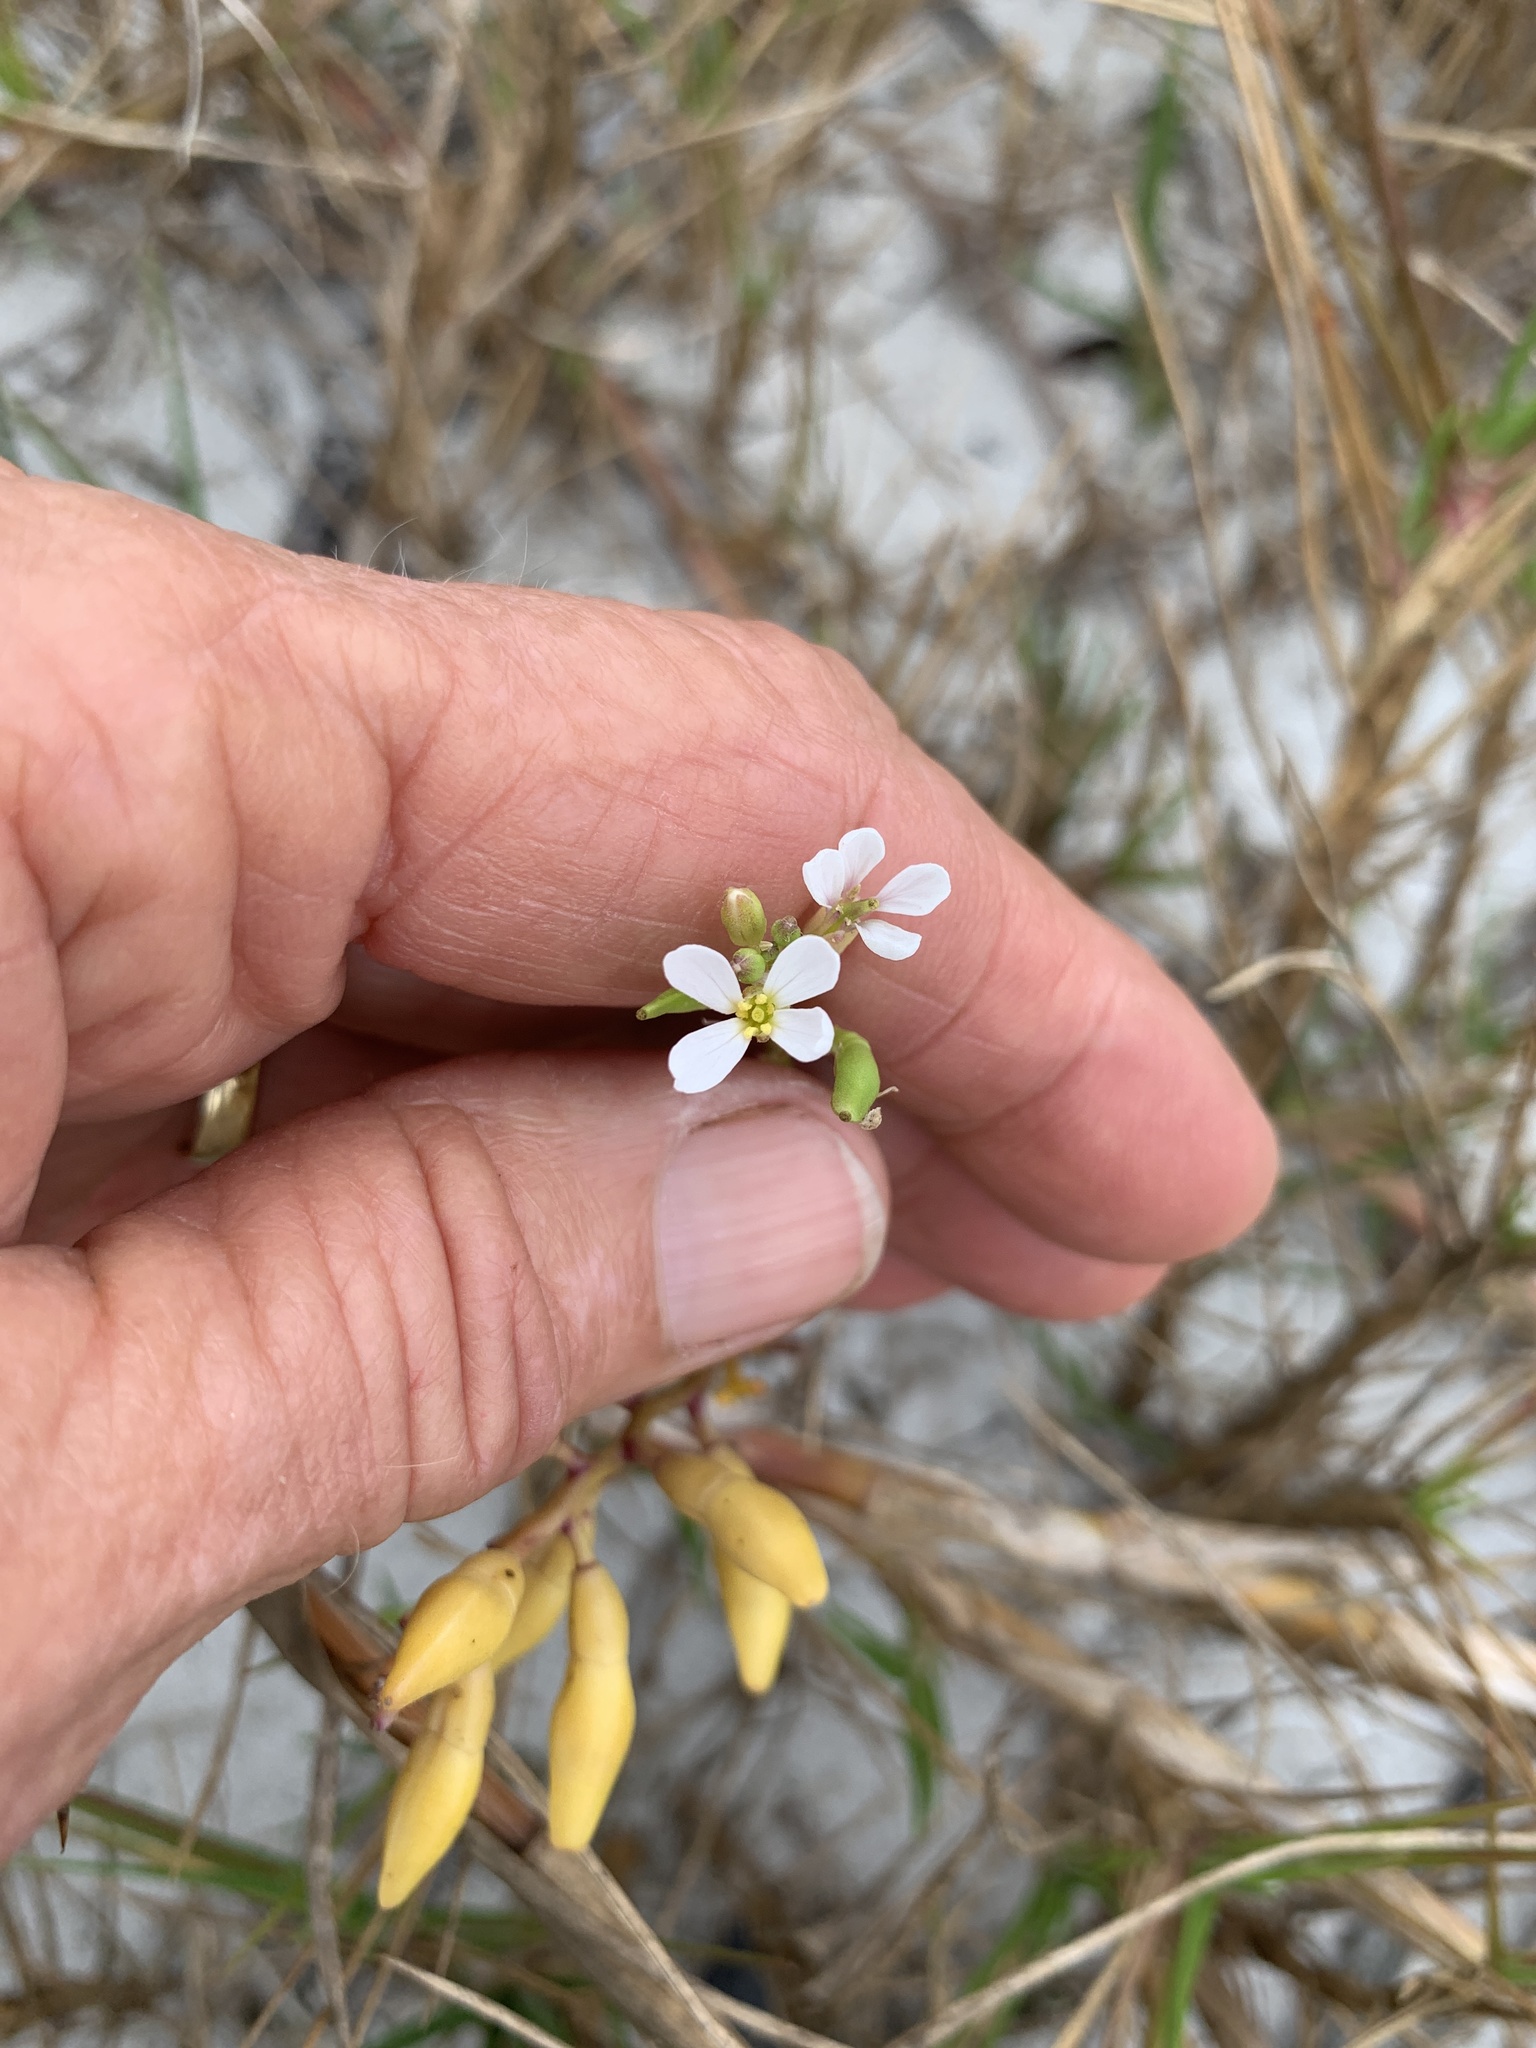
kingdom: Plantae
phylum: Tracheophyta
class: Magnoliopsida
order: Brassicales
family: Brassicaceae
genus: Cakile
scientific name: Cakile lanceolata
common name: Sea rocket
